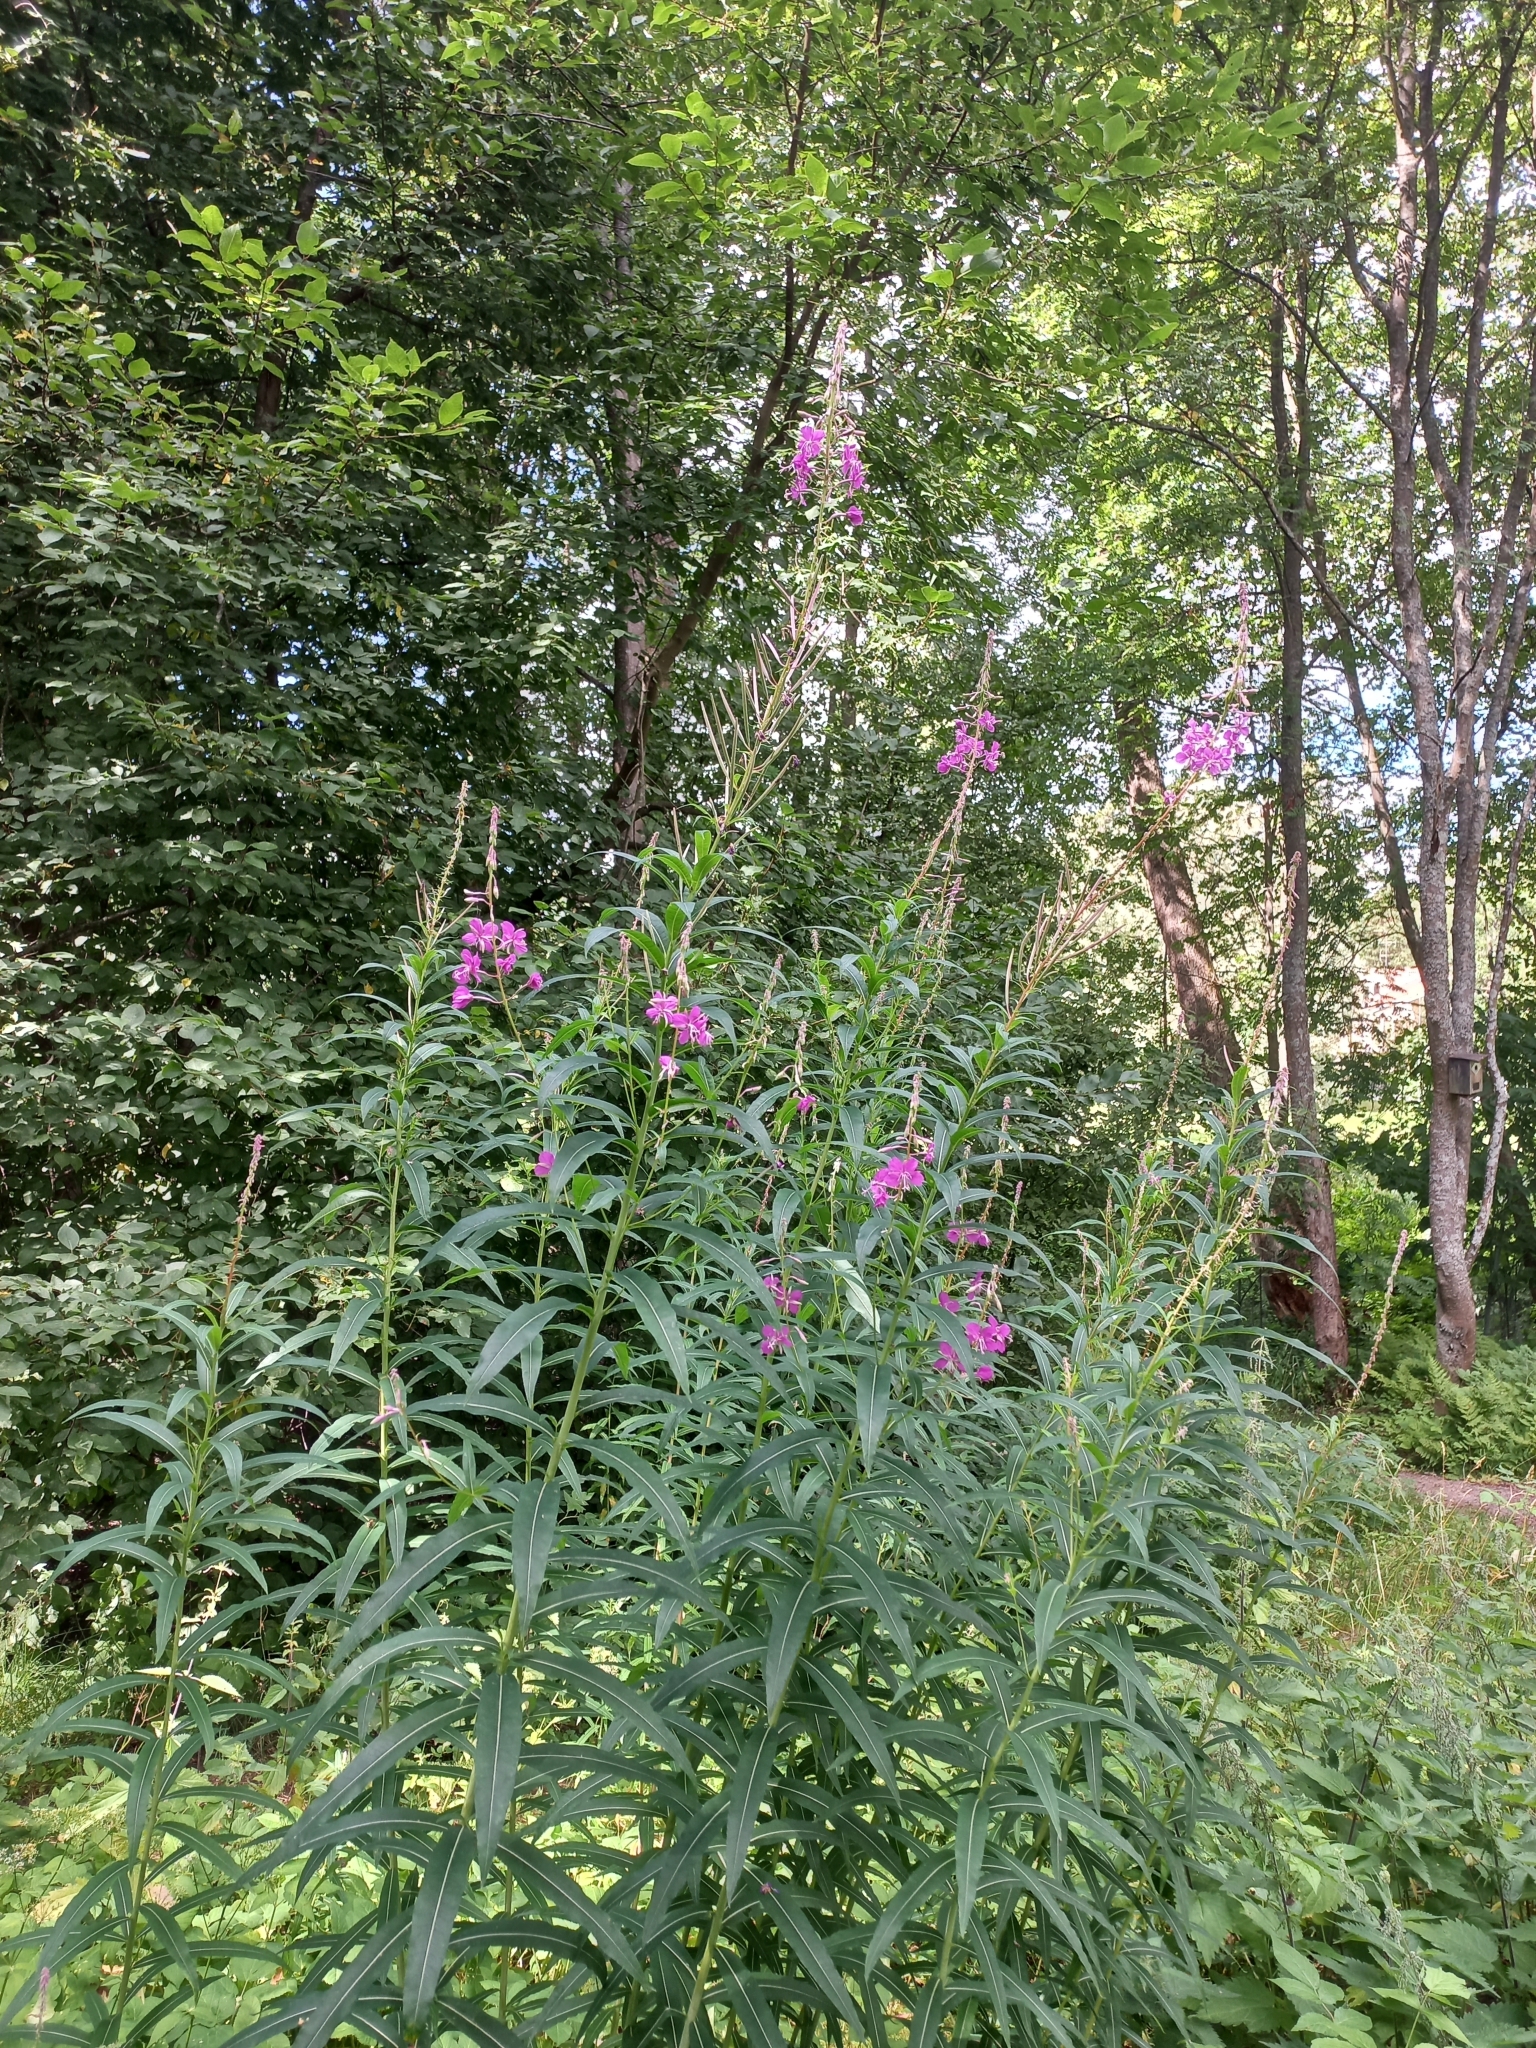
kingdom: Plantae
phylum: Tracheophyta
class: Magnoliopsida
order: Myrtales
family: Onagraceae
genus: Chamaenerion
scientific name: Chamaenerion angustifolium
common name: Fireweed
